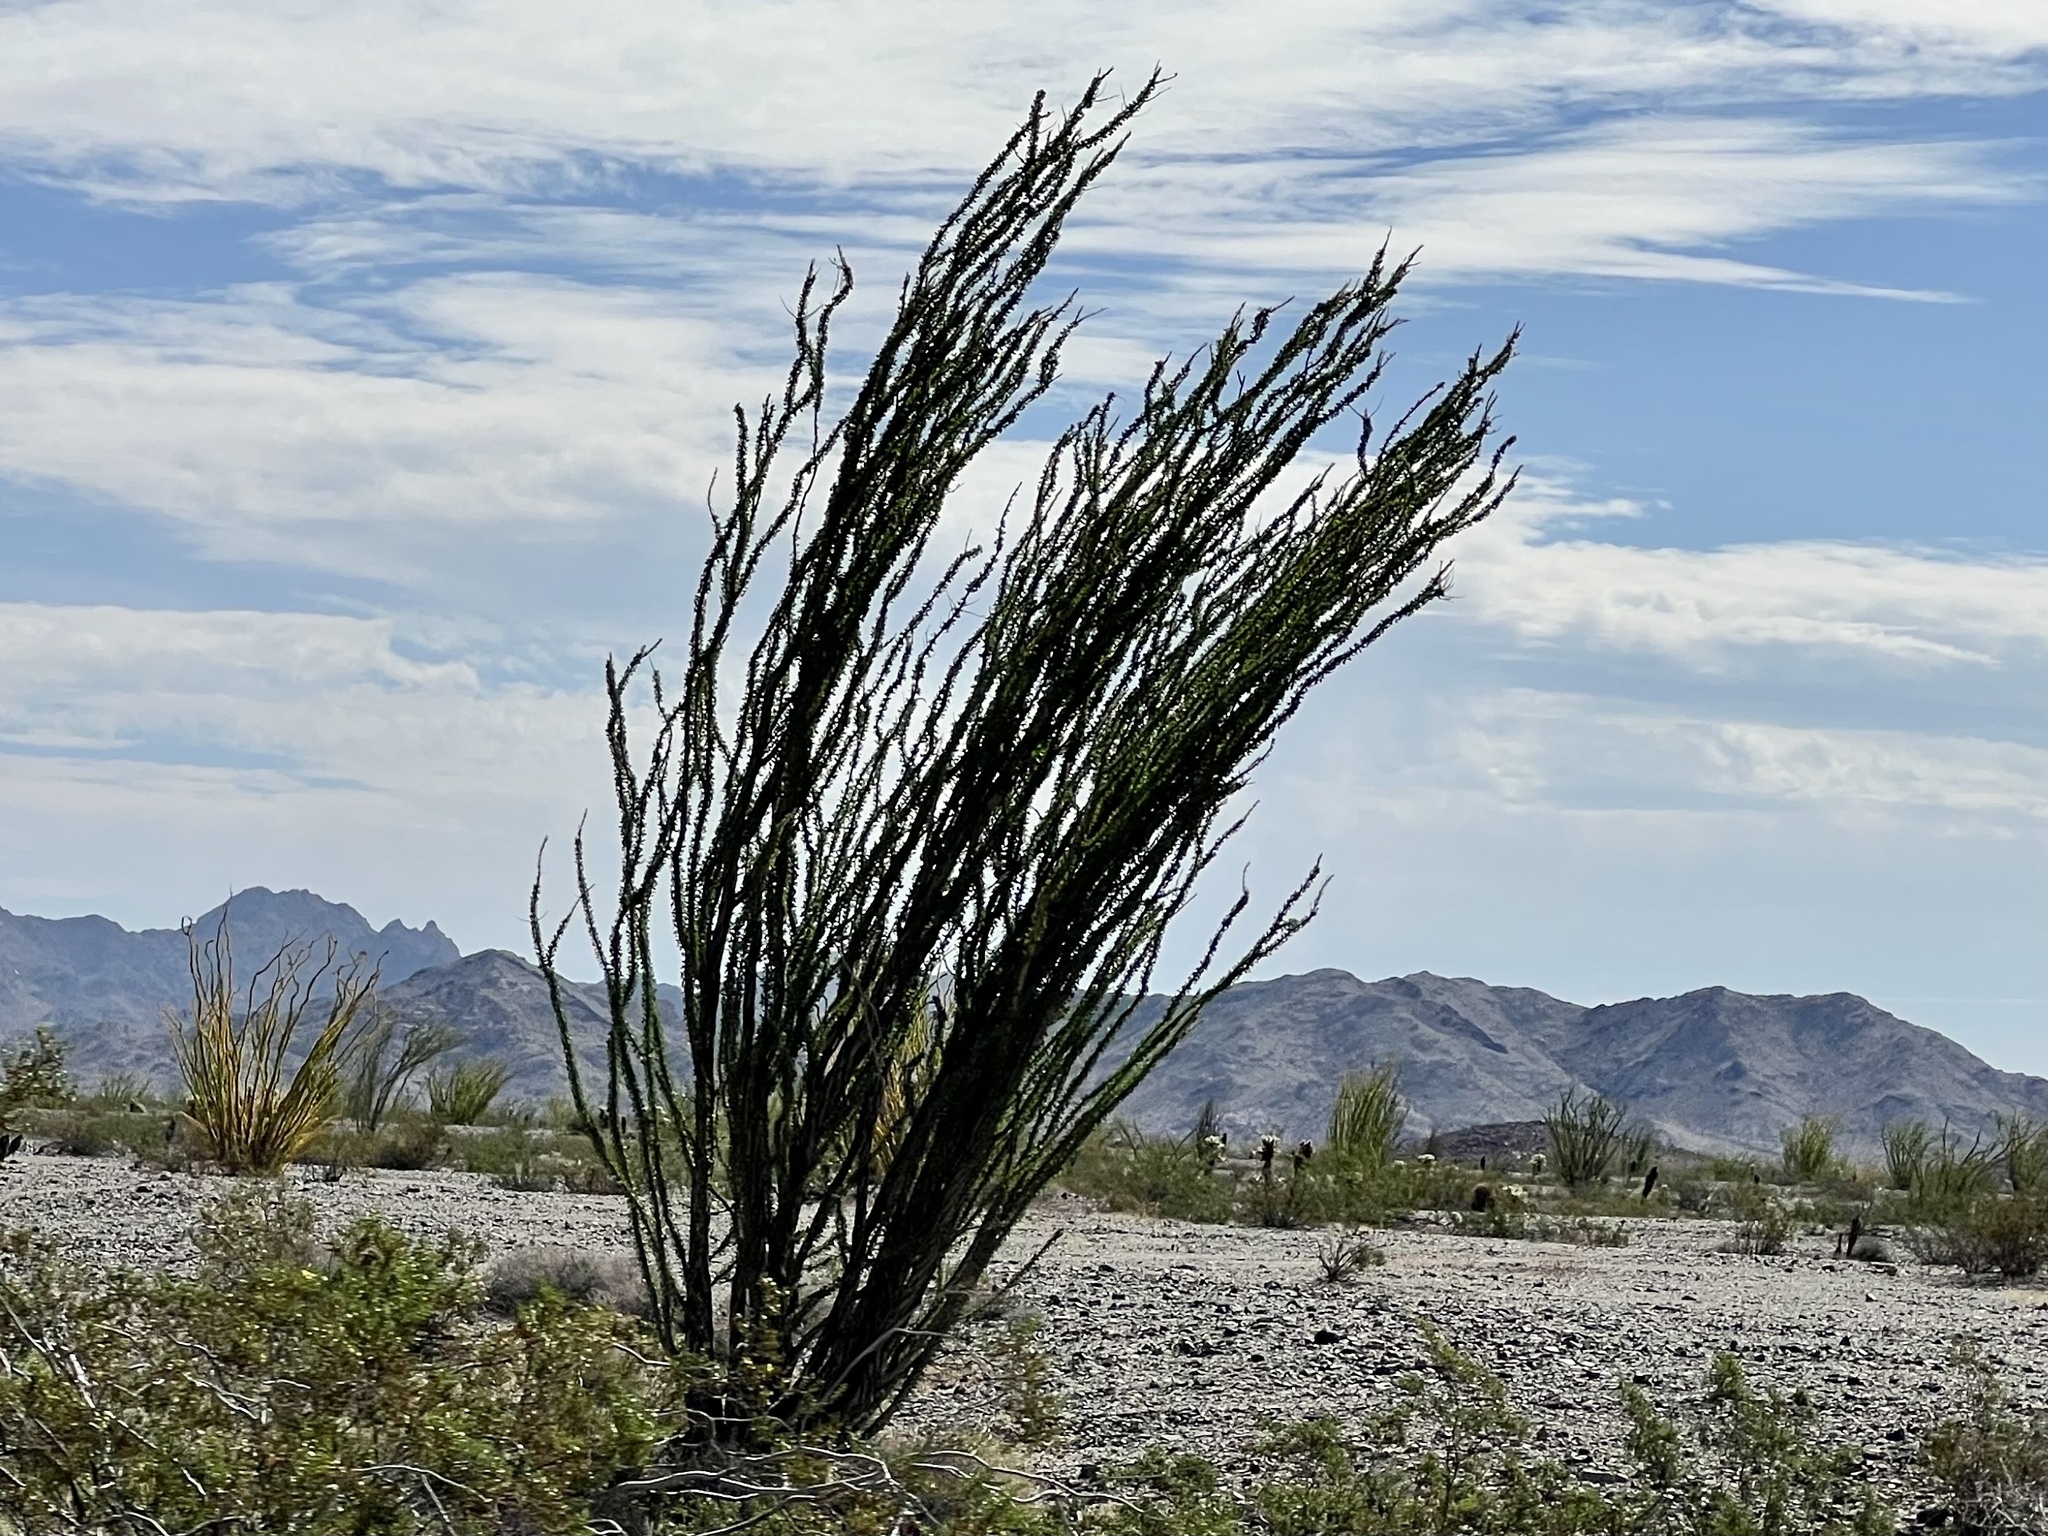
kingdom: Plantae
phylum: Tracheophyta
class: Magnoliopsida
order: Ericales
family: Fouquieriaceae
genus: Fouquieria
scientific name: Fouquieria splendens
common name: Vine-cactus
